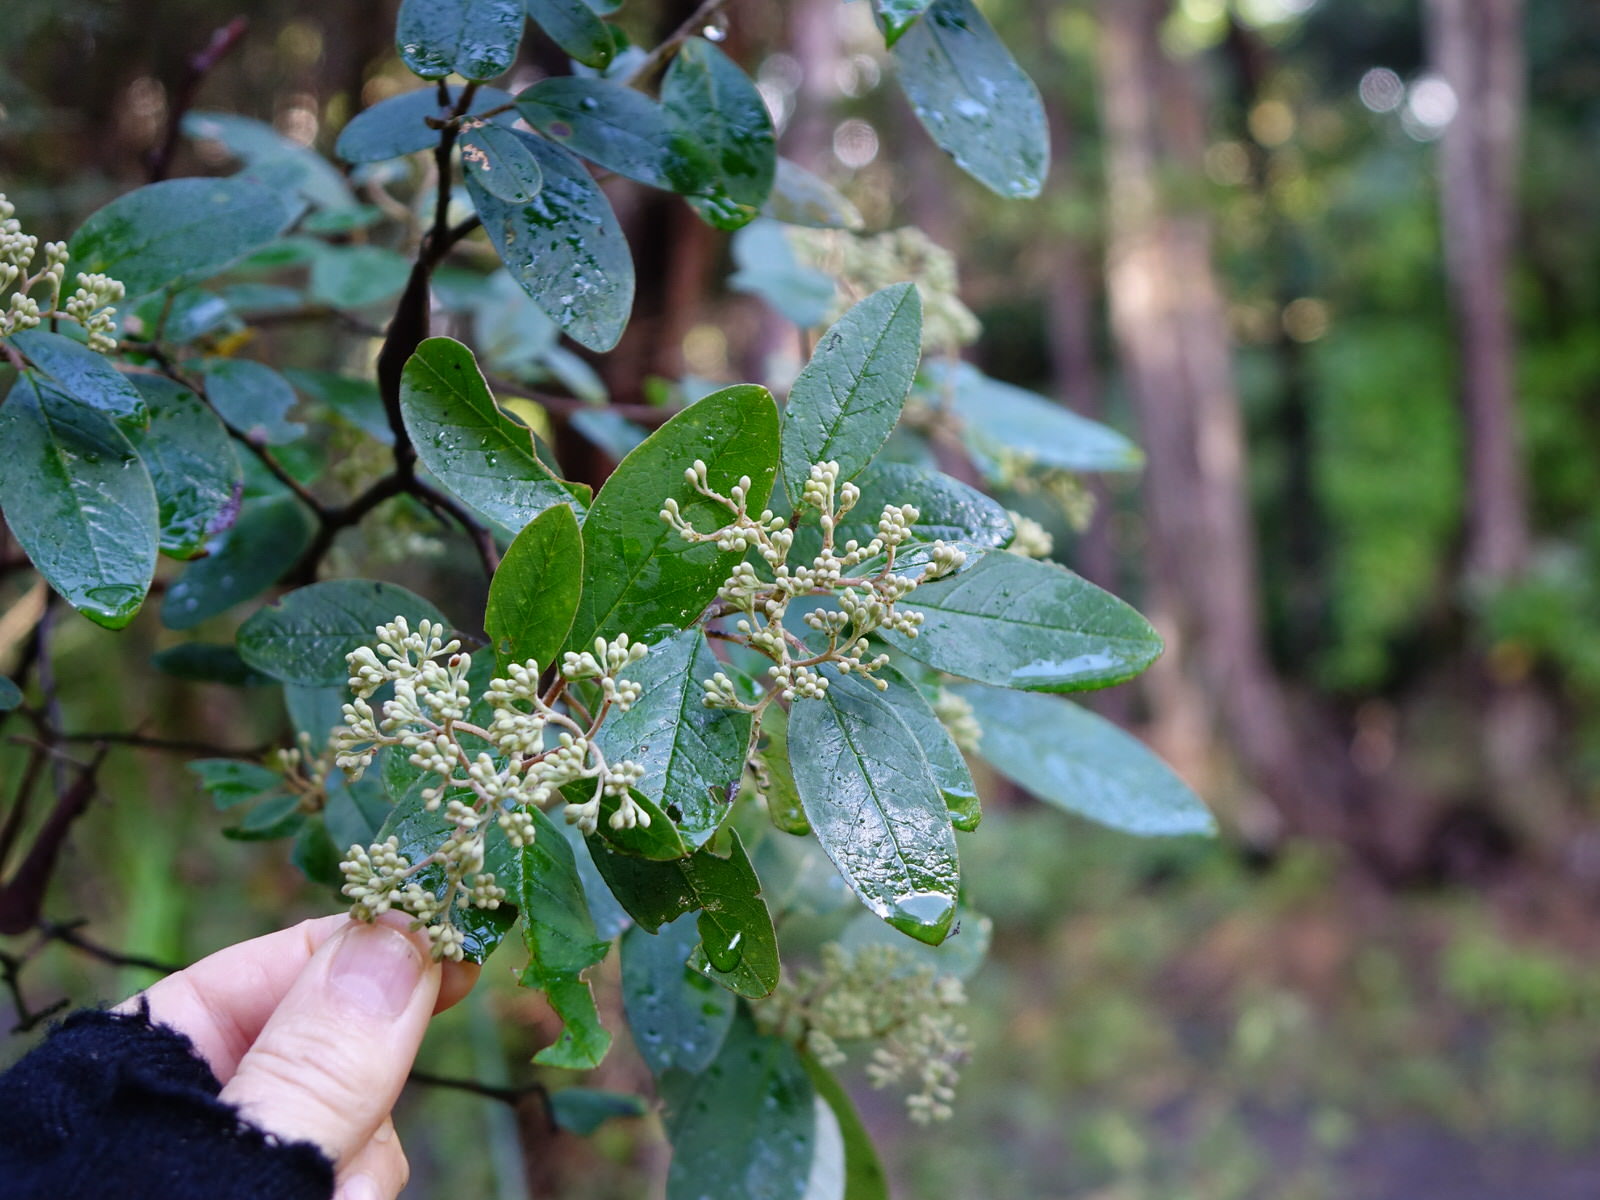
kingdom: Plantae
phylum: Tracheophyta
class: Magnoliopsida
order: Rosales
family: Rhamnaceae
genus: Pomaderris
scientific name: Pomaderris kumeraho
